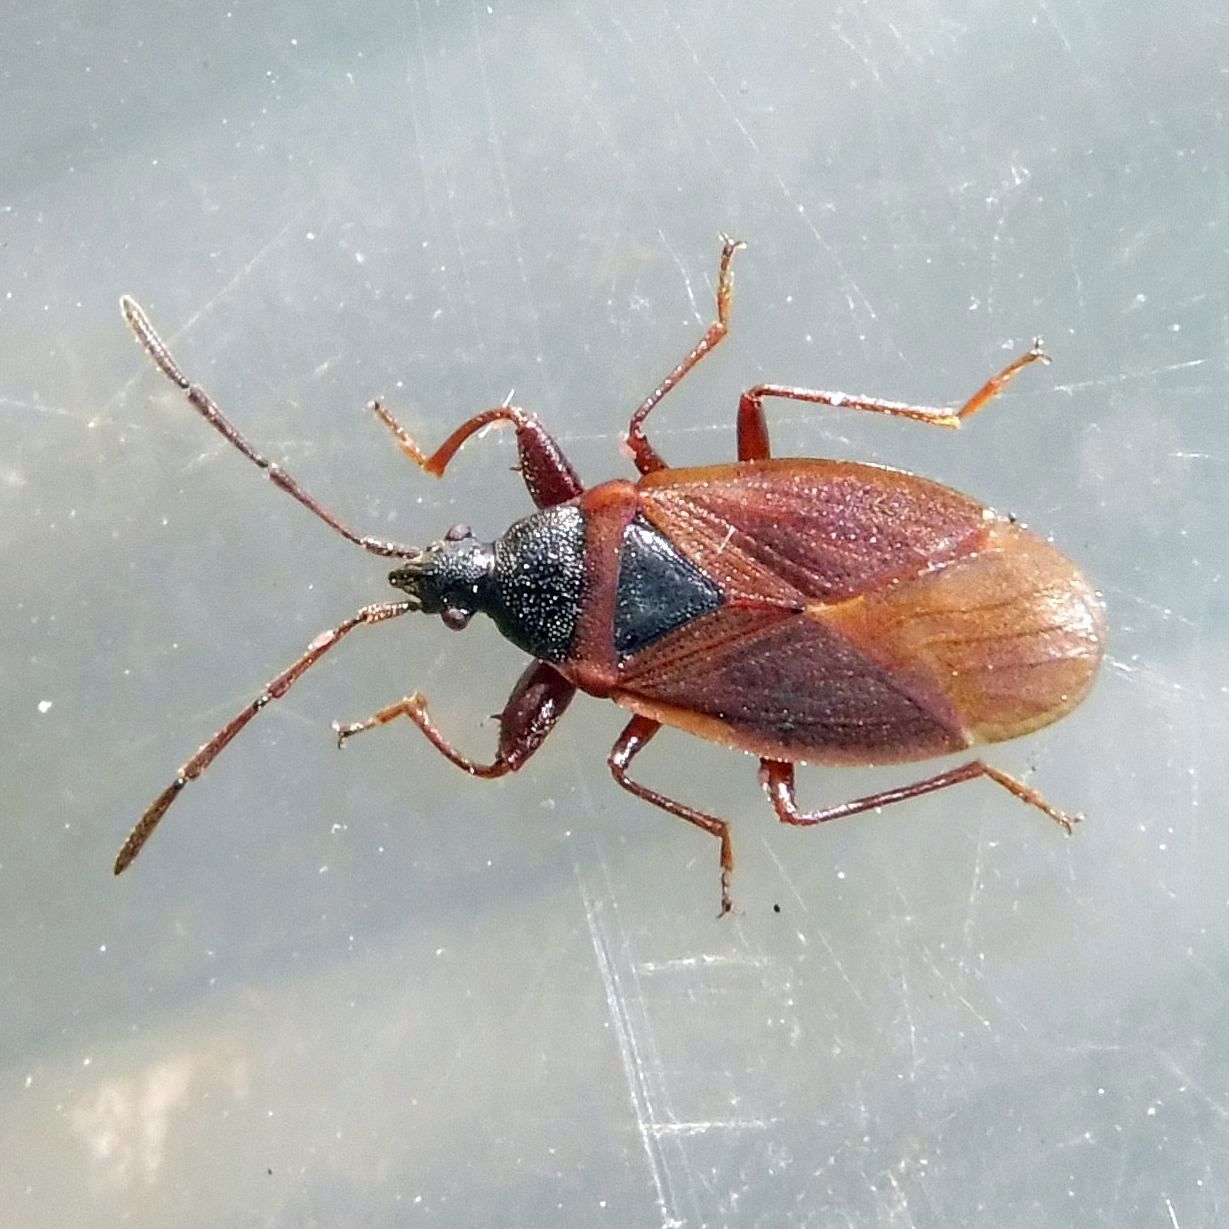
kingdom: Animalia
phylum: Arthropoda
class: Insecta
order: Hemiptera
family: Rhyparochromidae
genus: Gastrodes
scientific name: Gastrodes grossipes
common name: Pine cone bug
